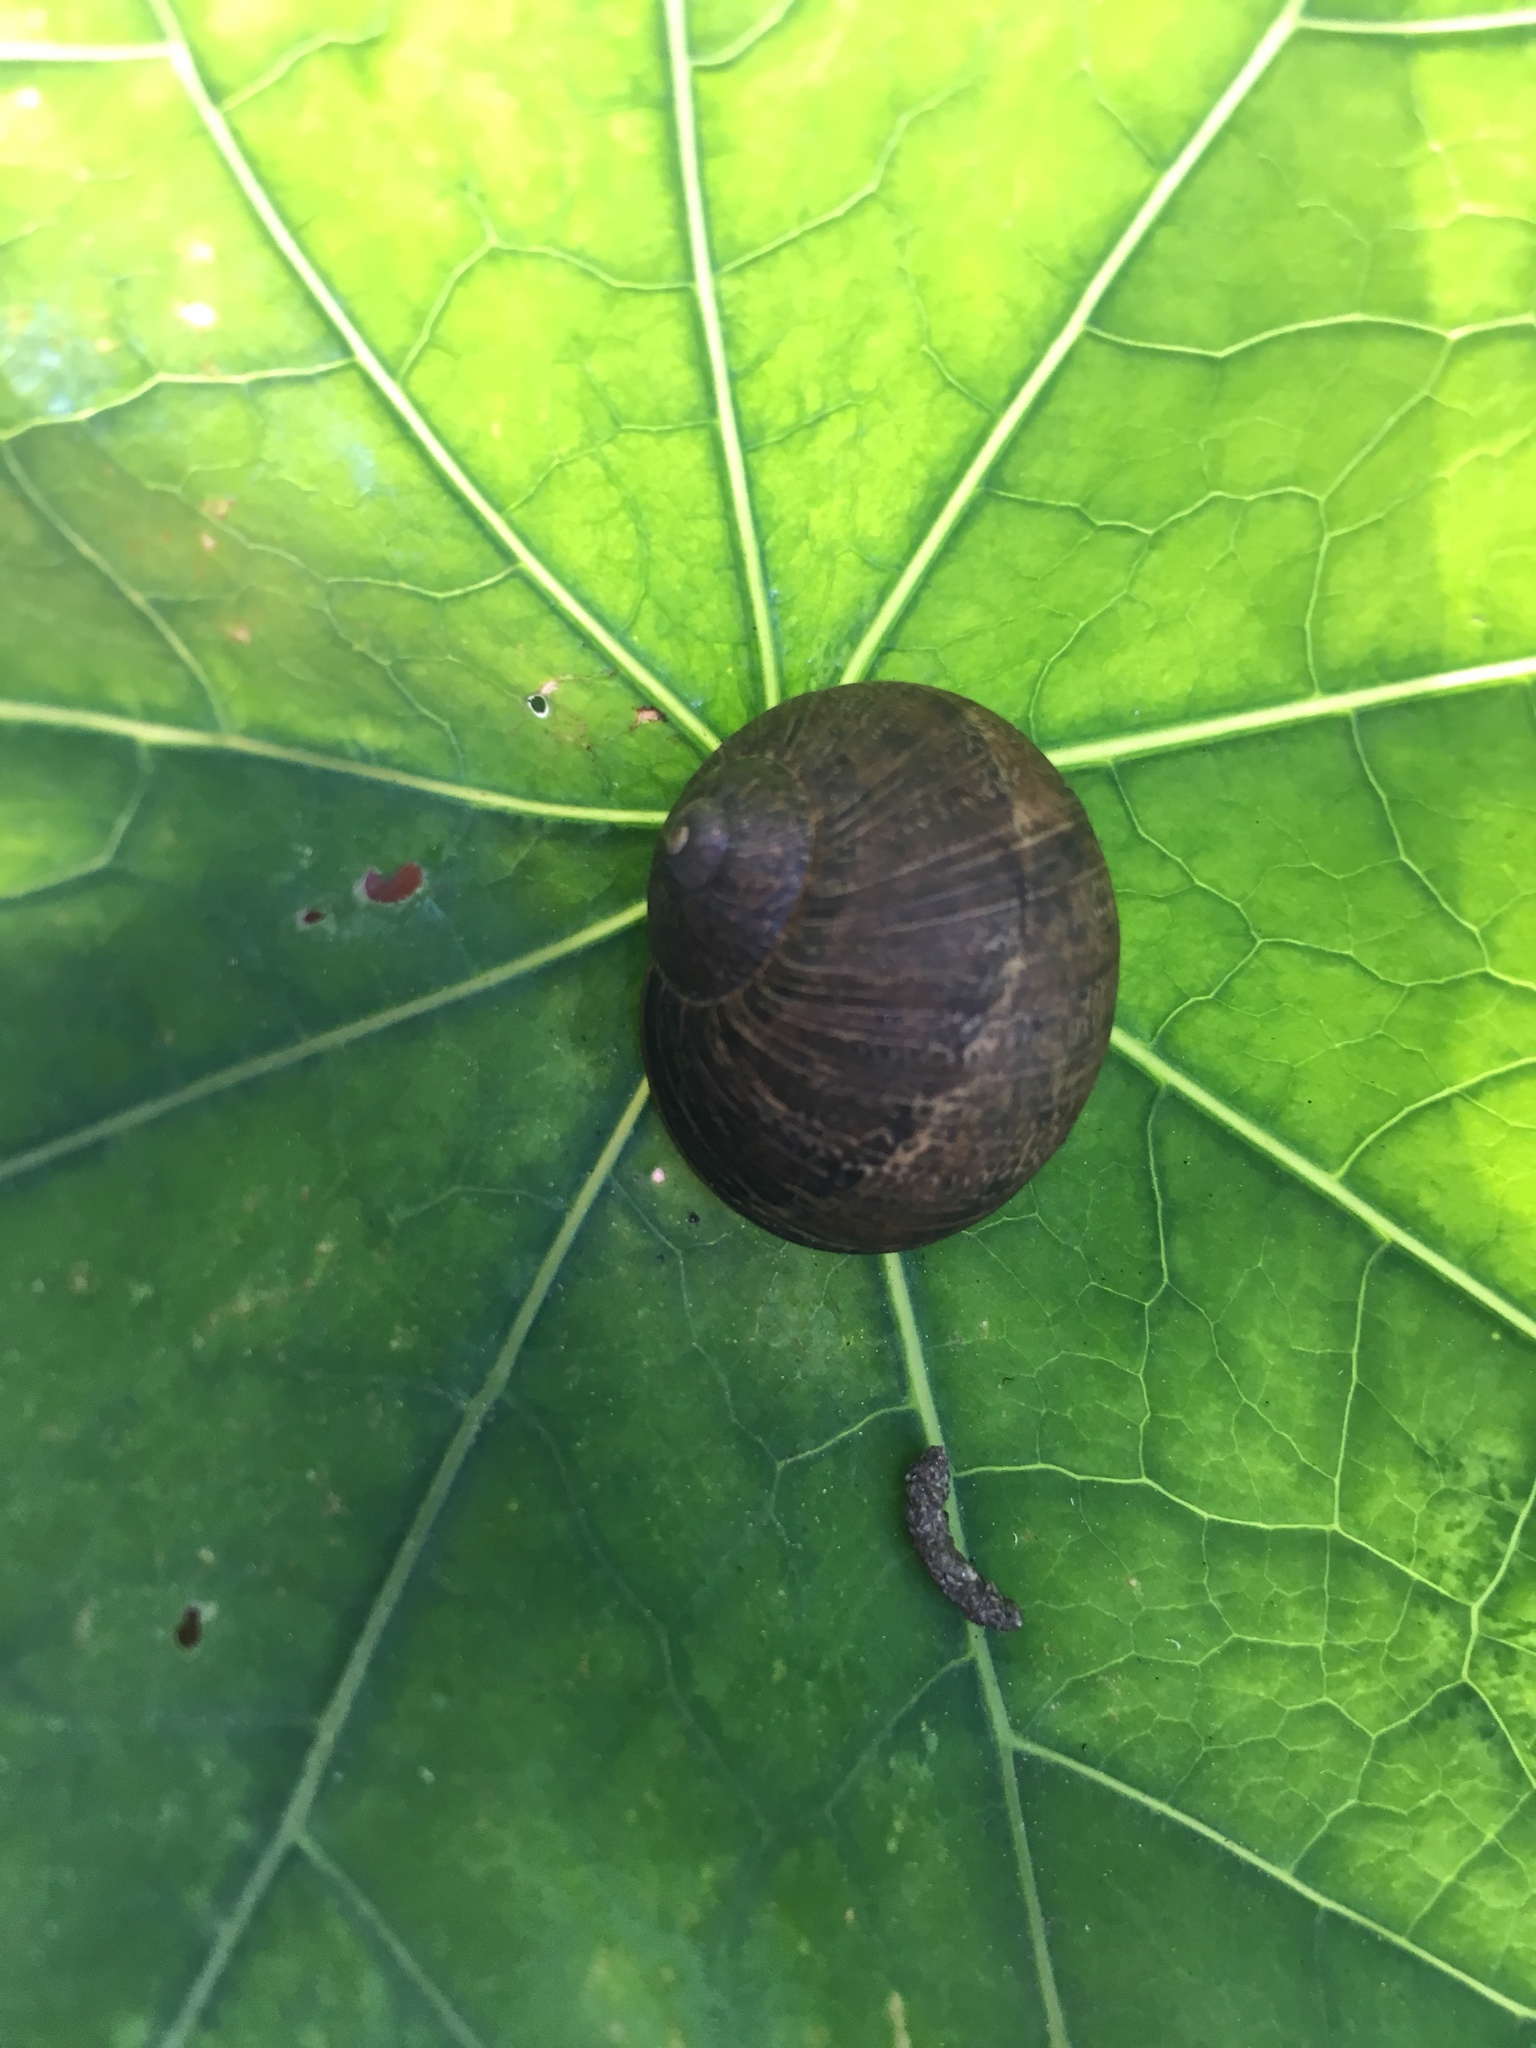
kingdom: Animalia
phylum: Mollusca
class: Gastropoda
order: Stylommatophora
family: Helicidae
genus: Cornu
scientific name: Cornu aspersum
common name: Brown garden snail
